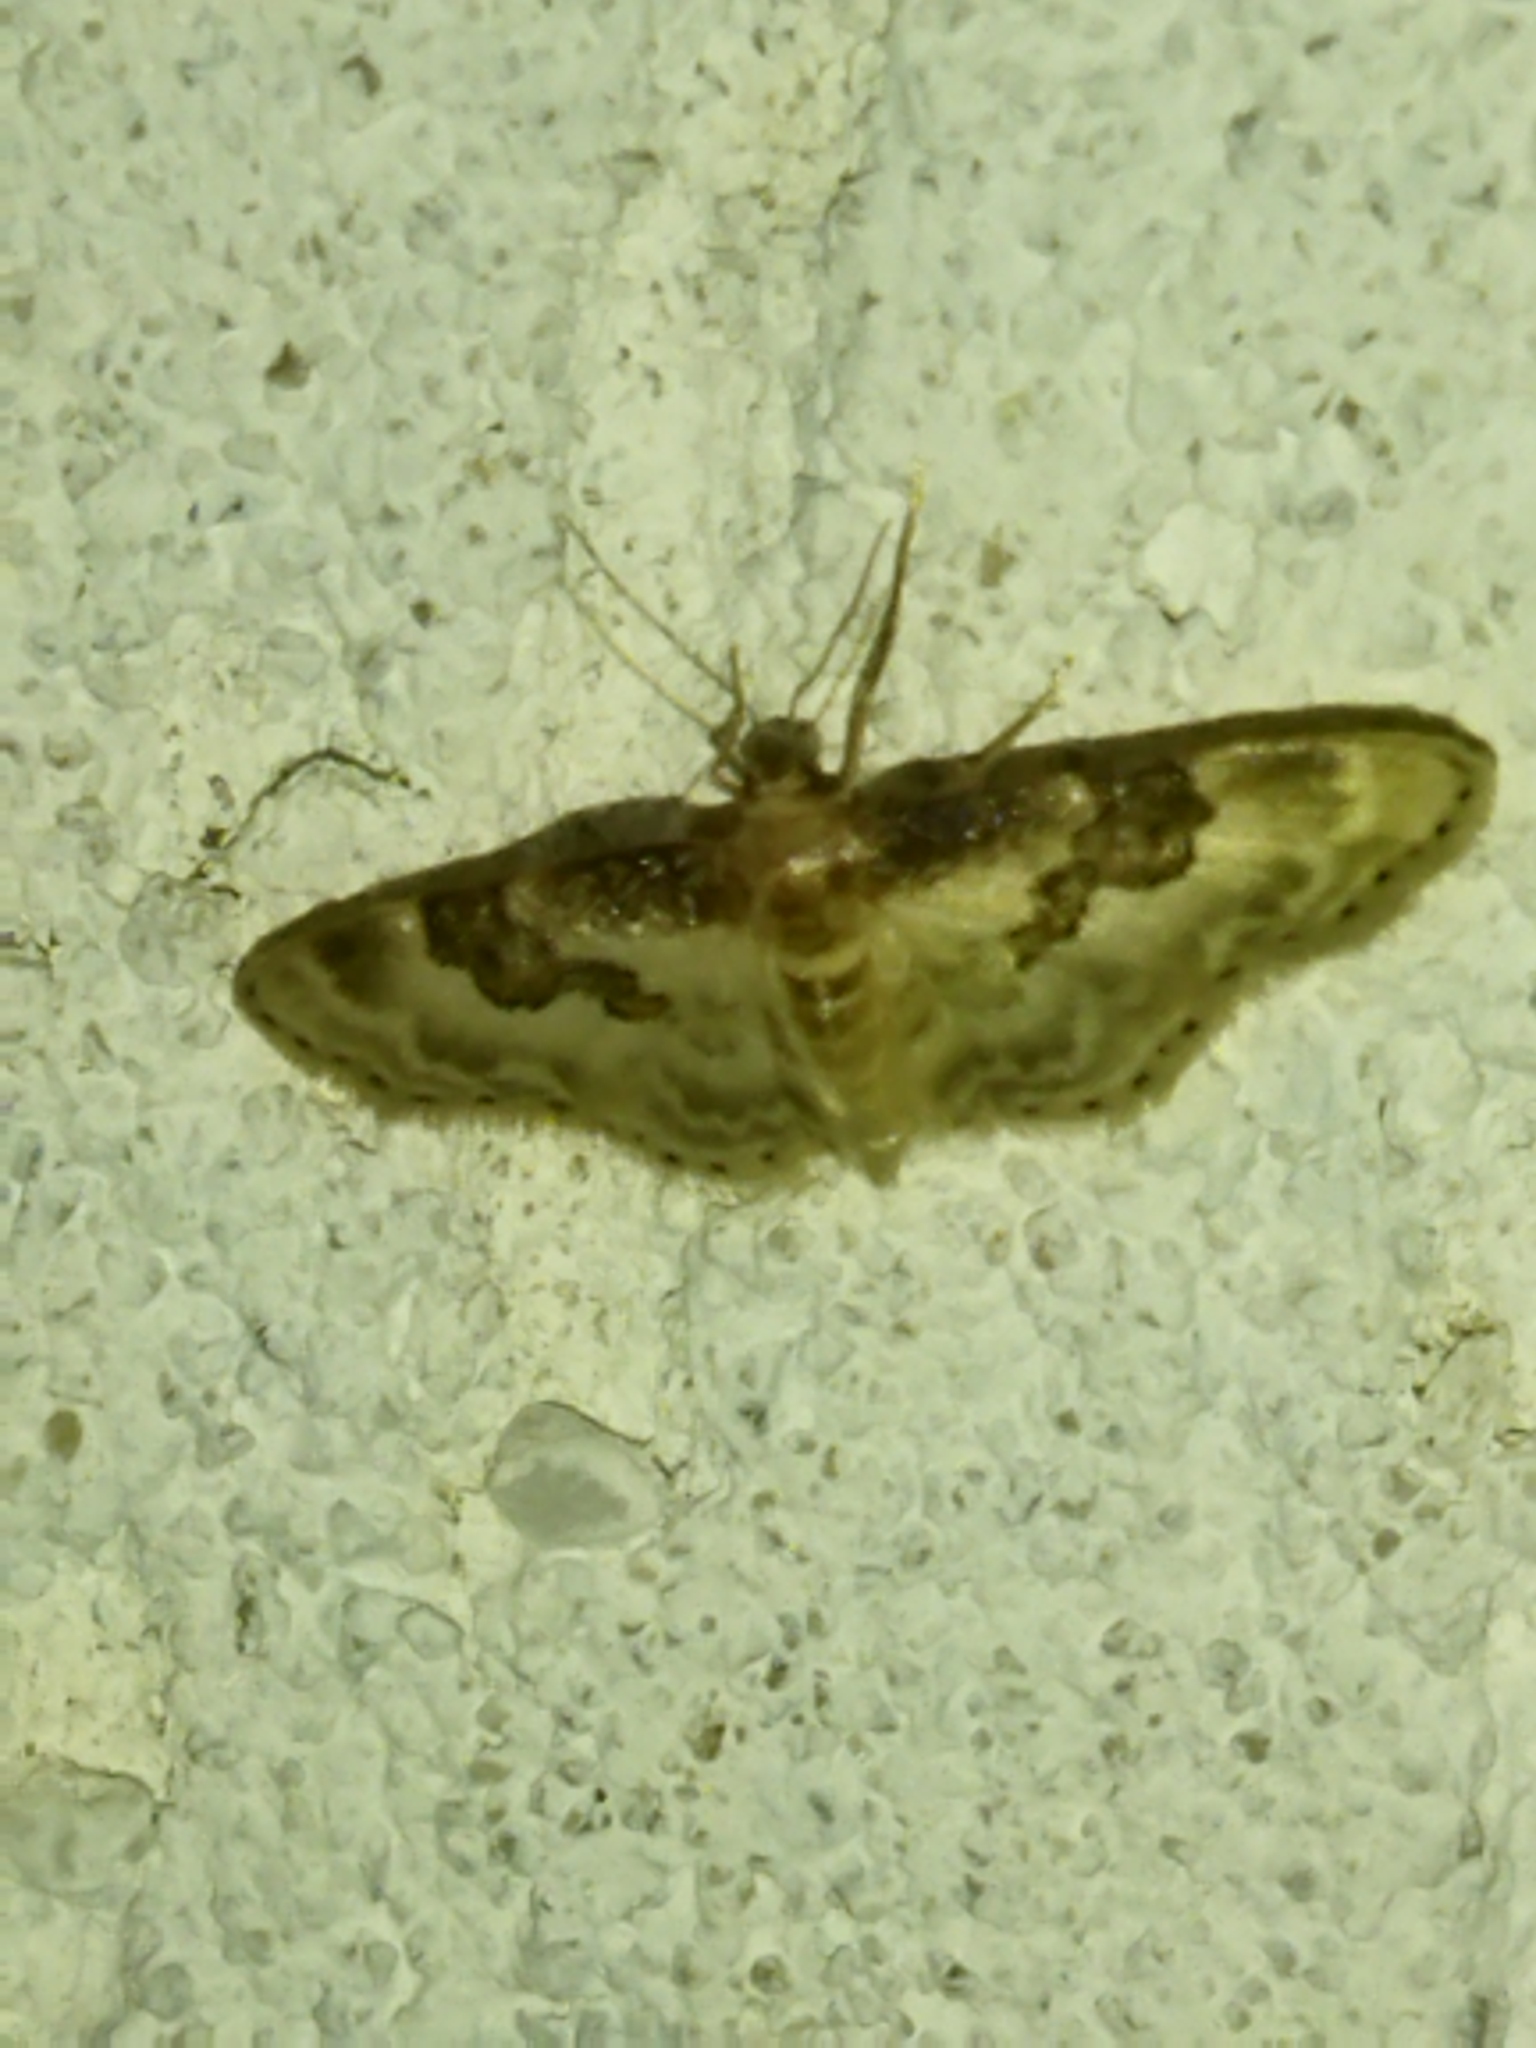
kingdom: Animalia
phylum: Arthropoda
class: Insecta
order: Lepidoptera
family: Geometridae
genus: Idaea
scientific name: Idaea rusticata
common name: Least carpet
